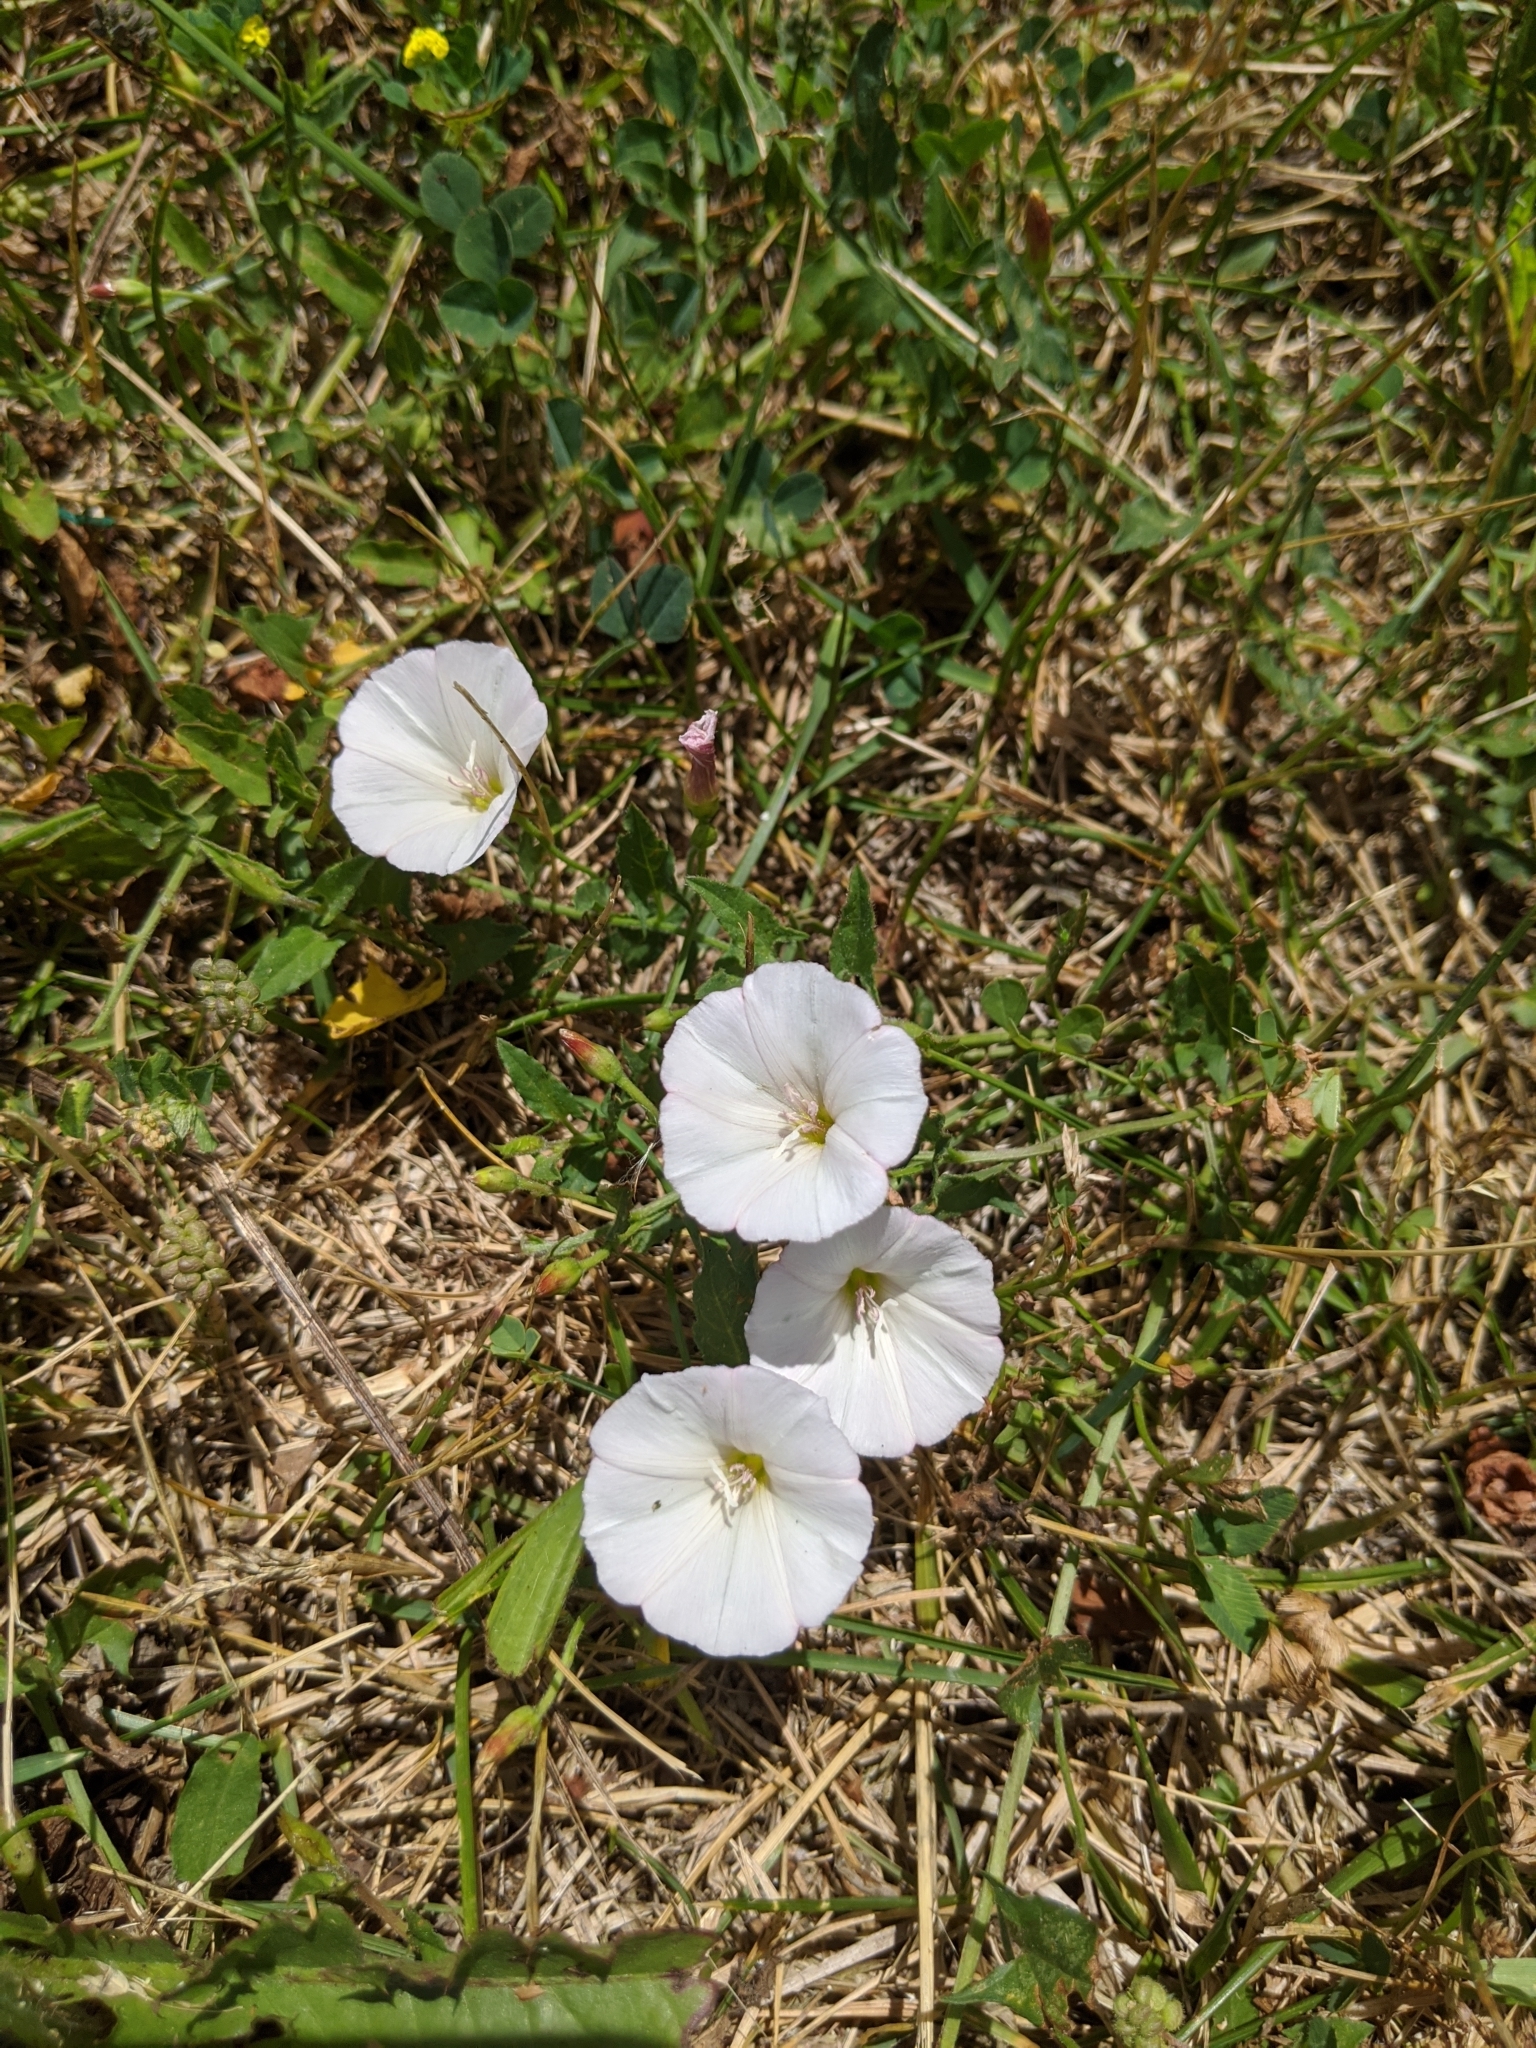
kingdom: Plantae
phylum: Tracheophyta
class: Magnoliopsida
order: Solanales
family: Convolvulaceae
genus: Convolvulus
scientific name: Convolvulus arvensis
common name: Field bindweed
